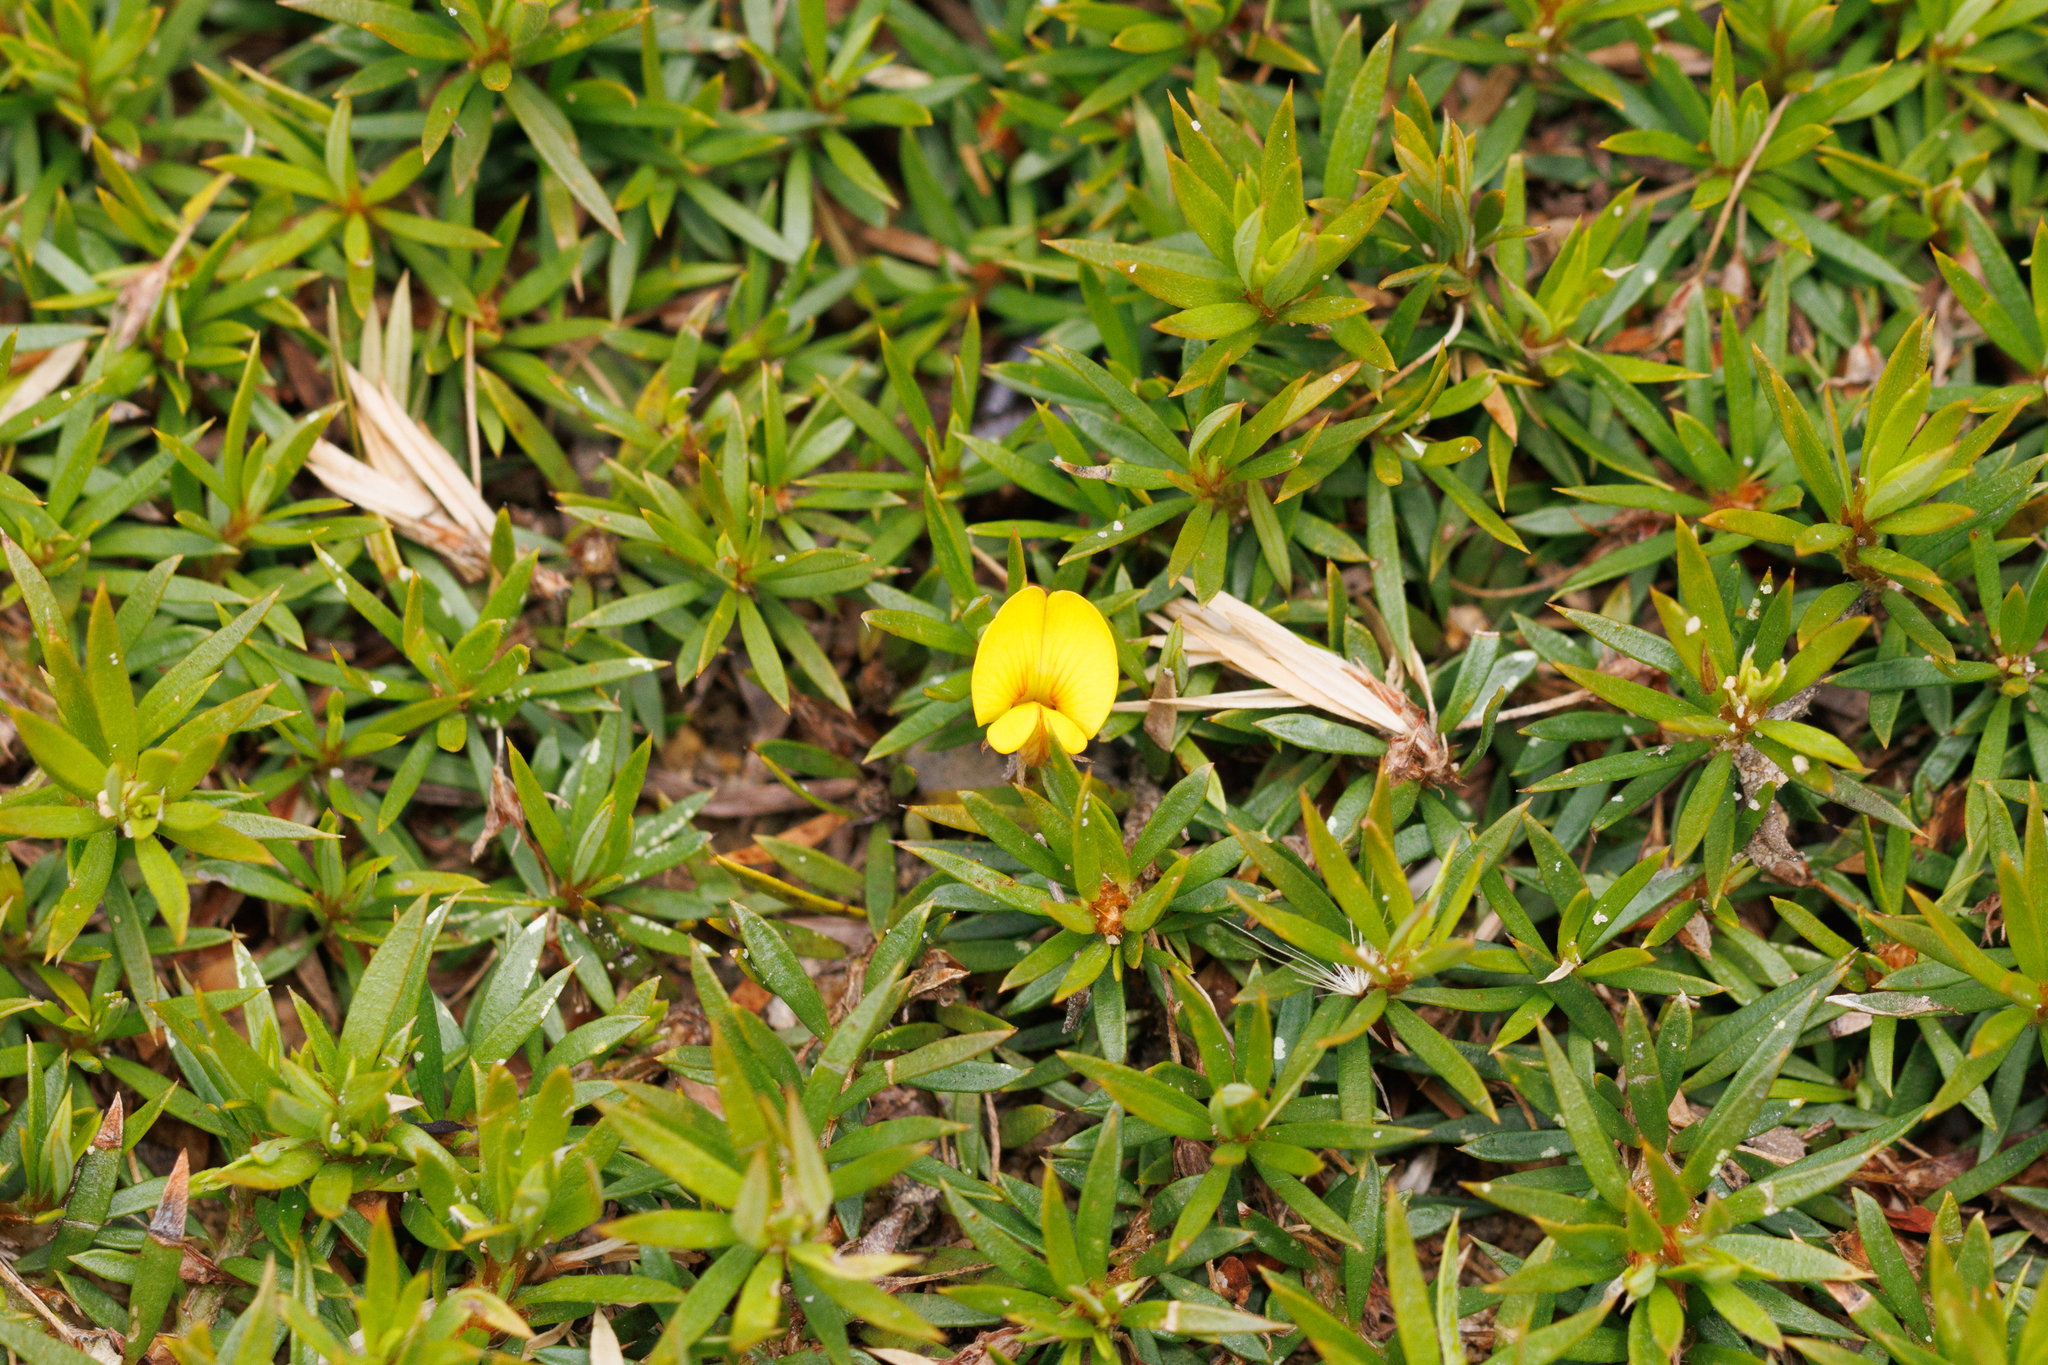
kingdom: Plantae
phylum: Tracheophyta
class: Magnoliopsida
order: Fabales
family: Fabaceae
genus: Pultenaea
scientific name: Pultenaea pedunculata
